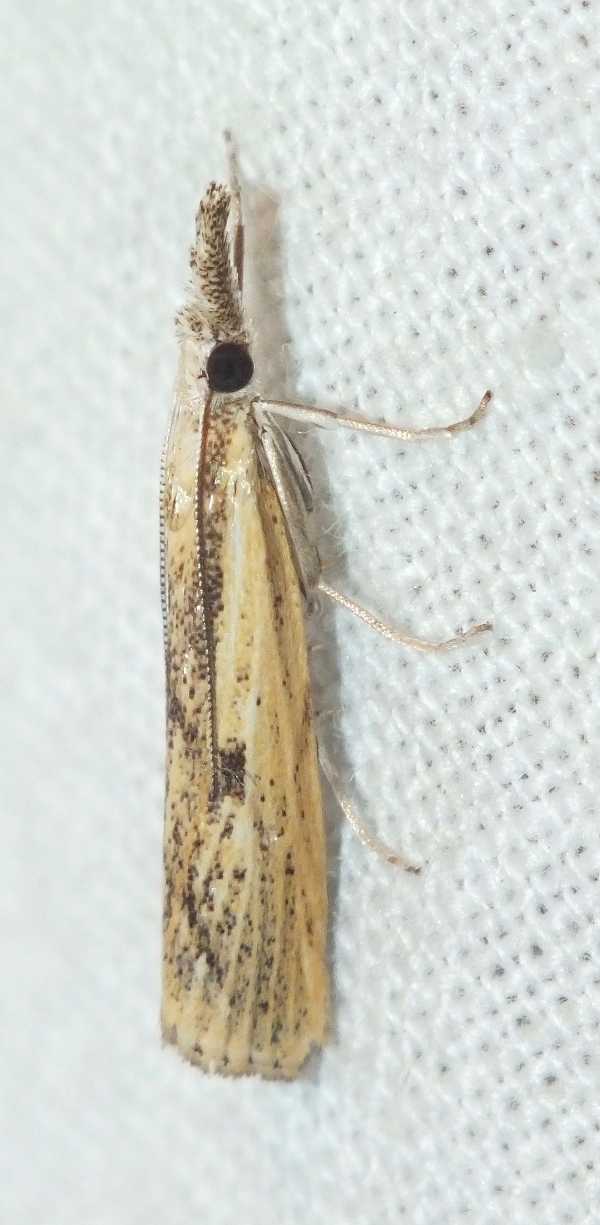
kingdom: Animalia
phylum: Arthropoda
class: Insecta
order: Lepidoptera
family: Crambidae
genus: Agriphila
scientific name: Agriphila inquinatella
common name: Barred grass-veneer
